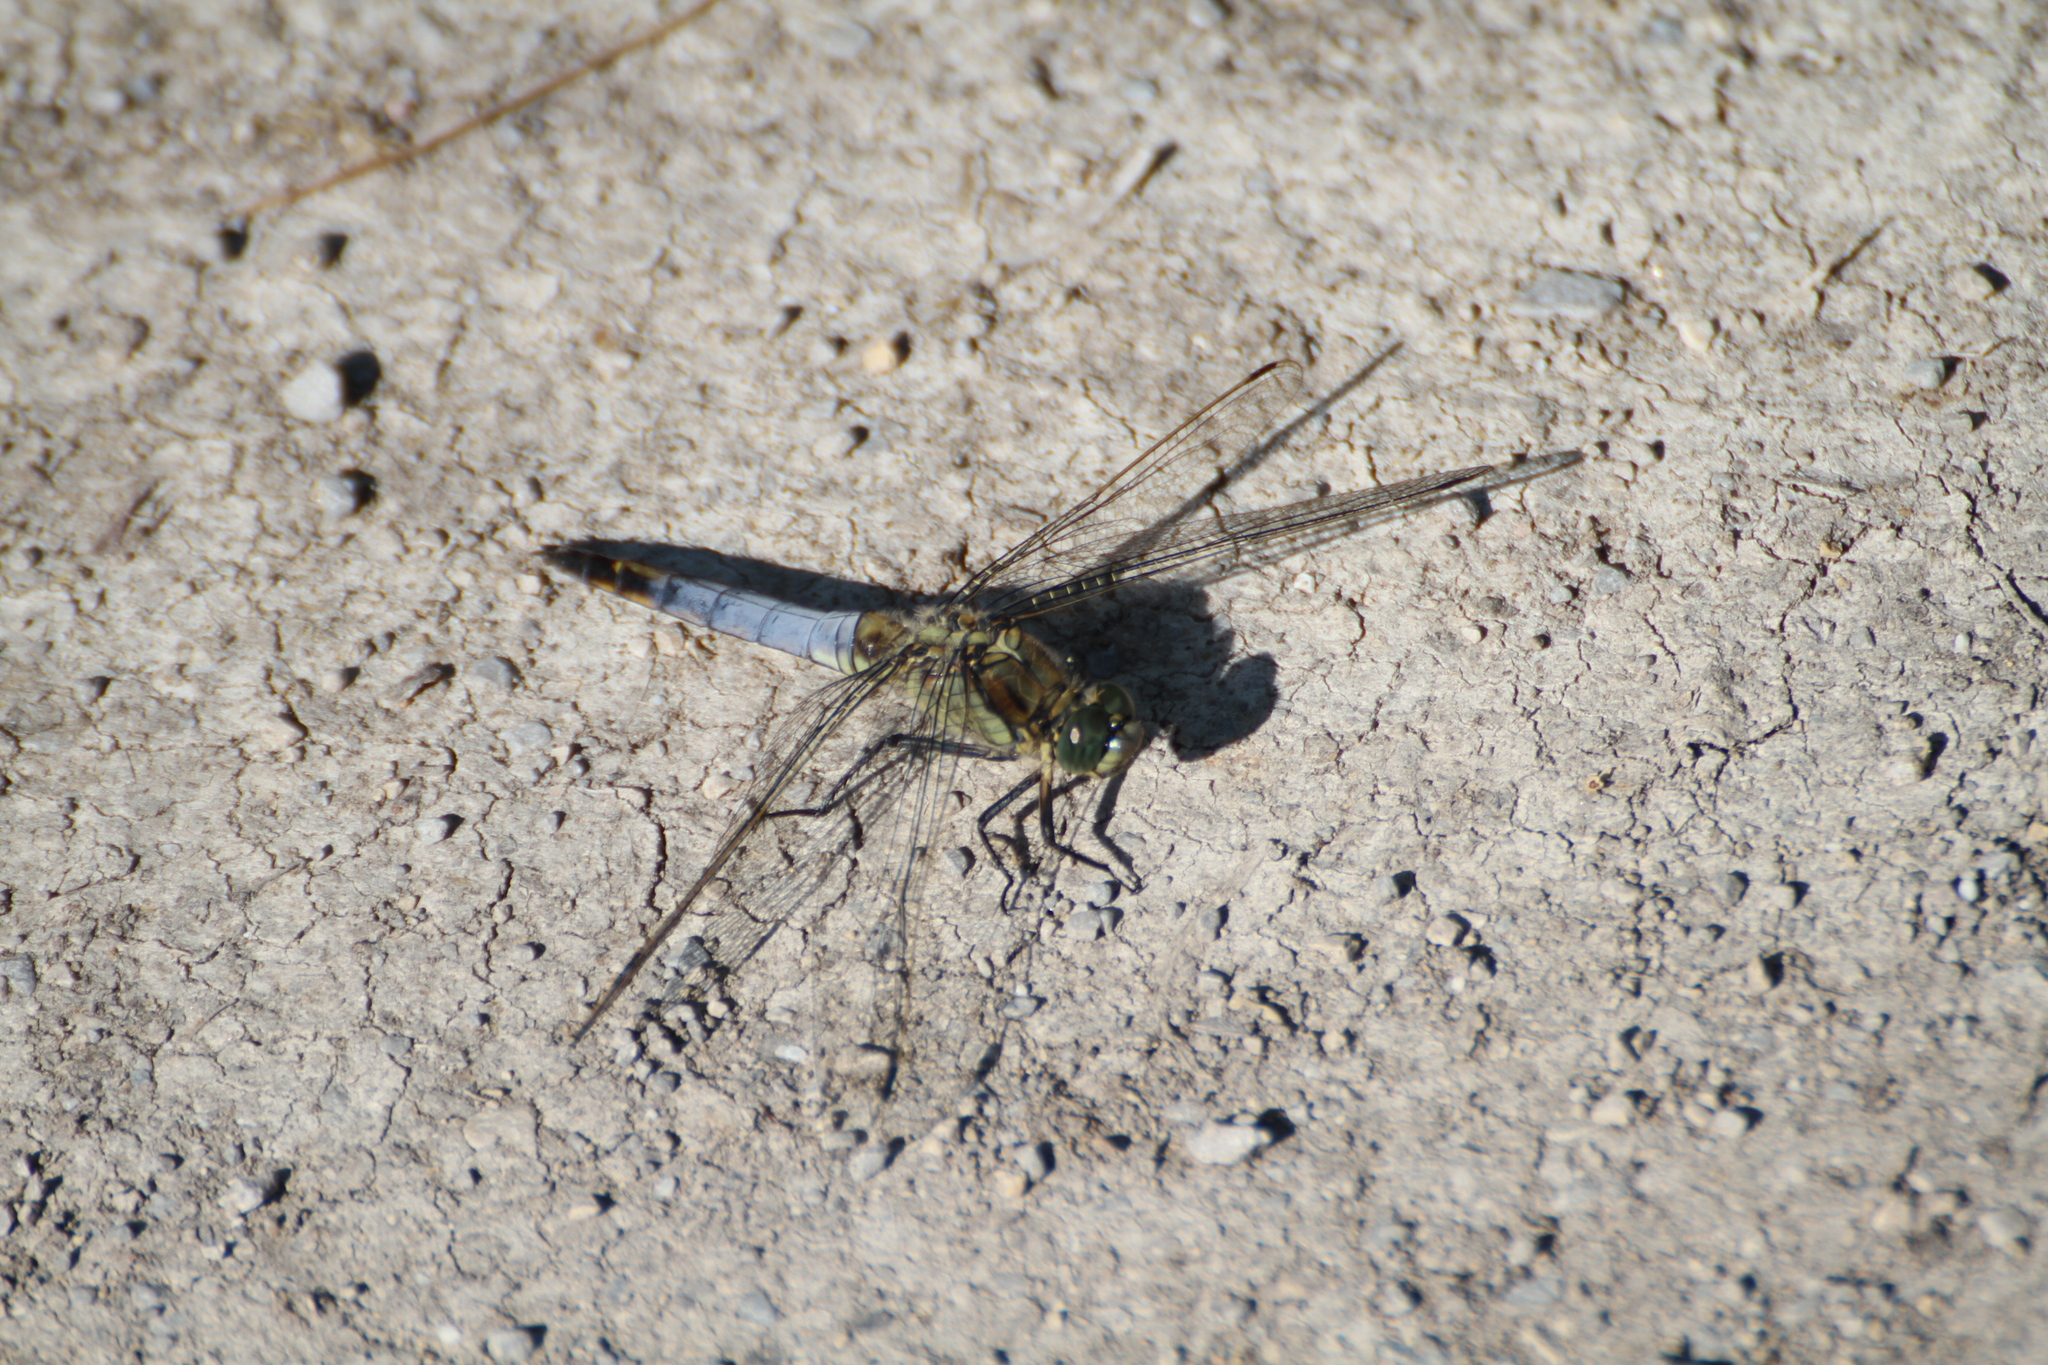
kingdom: Animalia
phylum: Arthropoda
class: Insecta
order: Odonata
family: Libellulidae
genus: Orthetrum
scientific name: Orthetrum cancellatum
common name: Black-tailed skimmer
